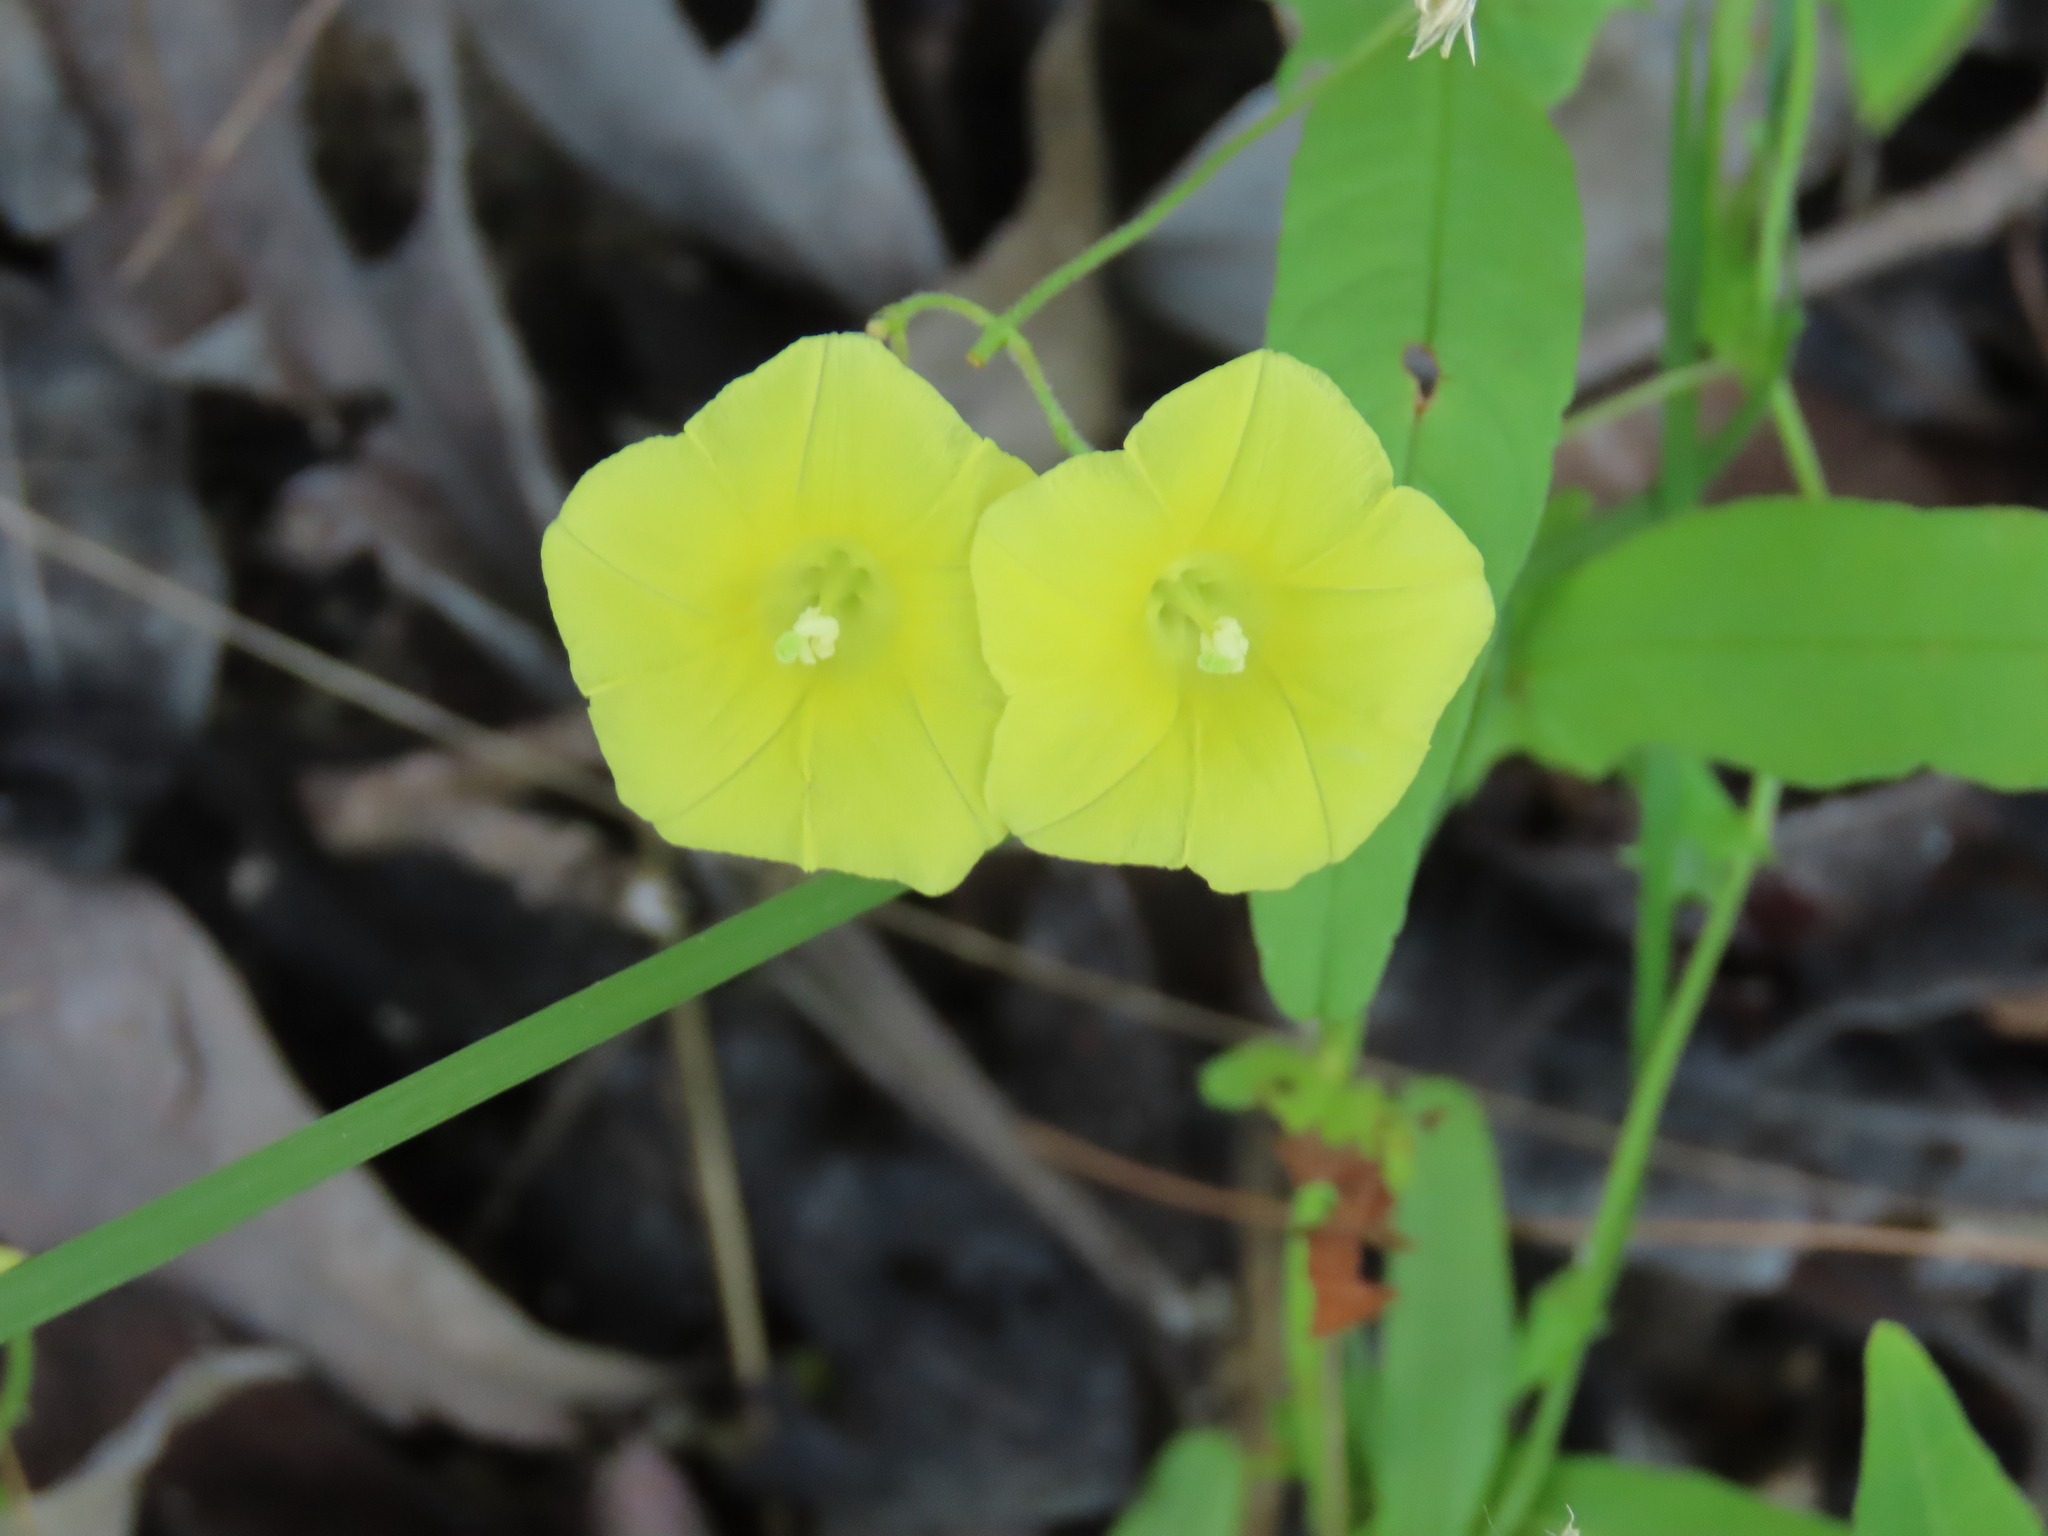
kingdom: Plantae
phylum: Tracheophyta
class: Magnoliopsida
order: Solanales
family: Convolvulaceae
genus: Xenostegia
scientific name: Xenostegia tridentata
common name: African morningvine
